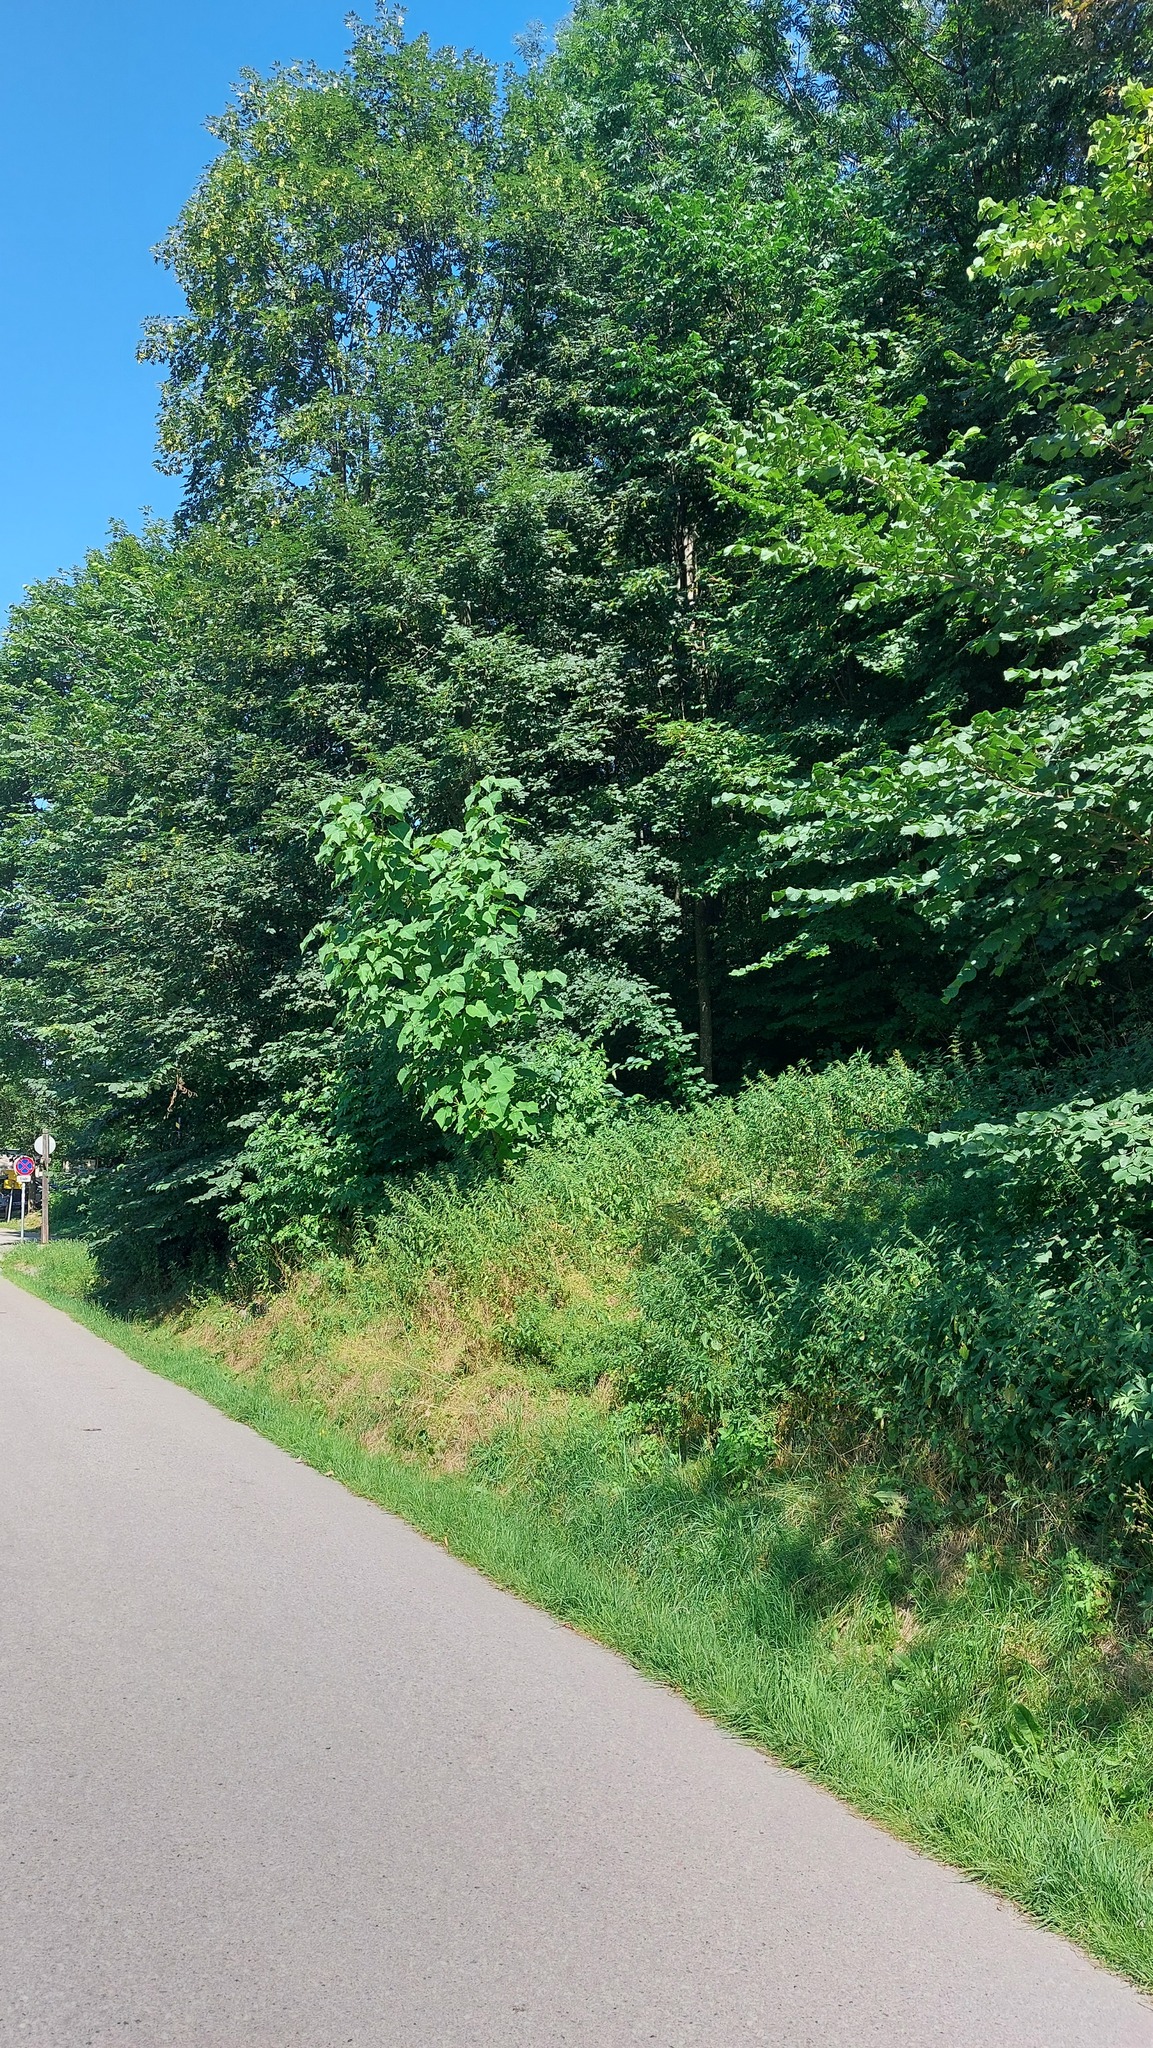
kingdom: Plantae
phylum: Tracheophyta
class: Magnoliopsida
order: Lamiales
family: Paulowniaceae
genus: Paulownia
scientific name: Paulownia tomentosa
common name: Foxglove-tree
